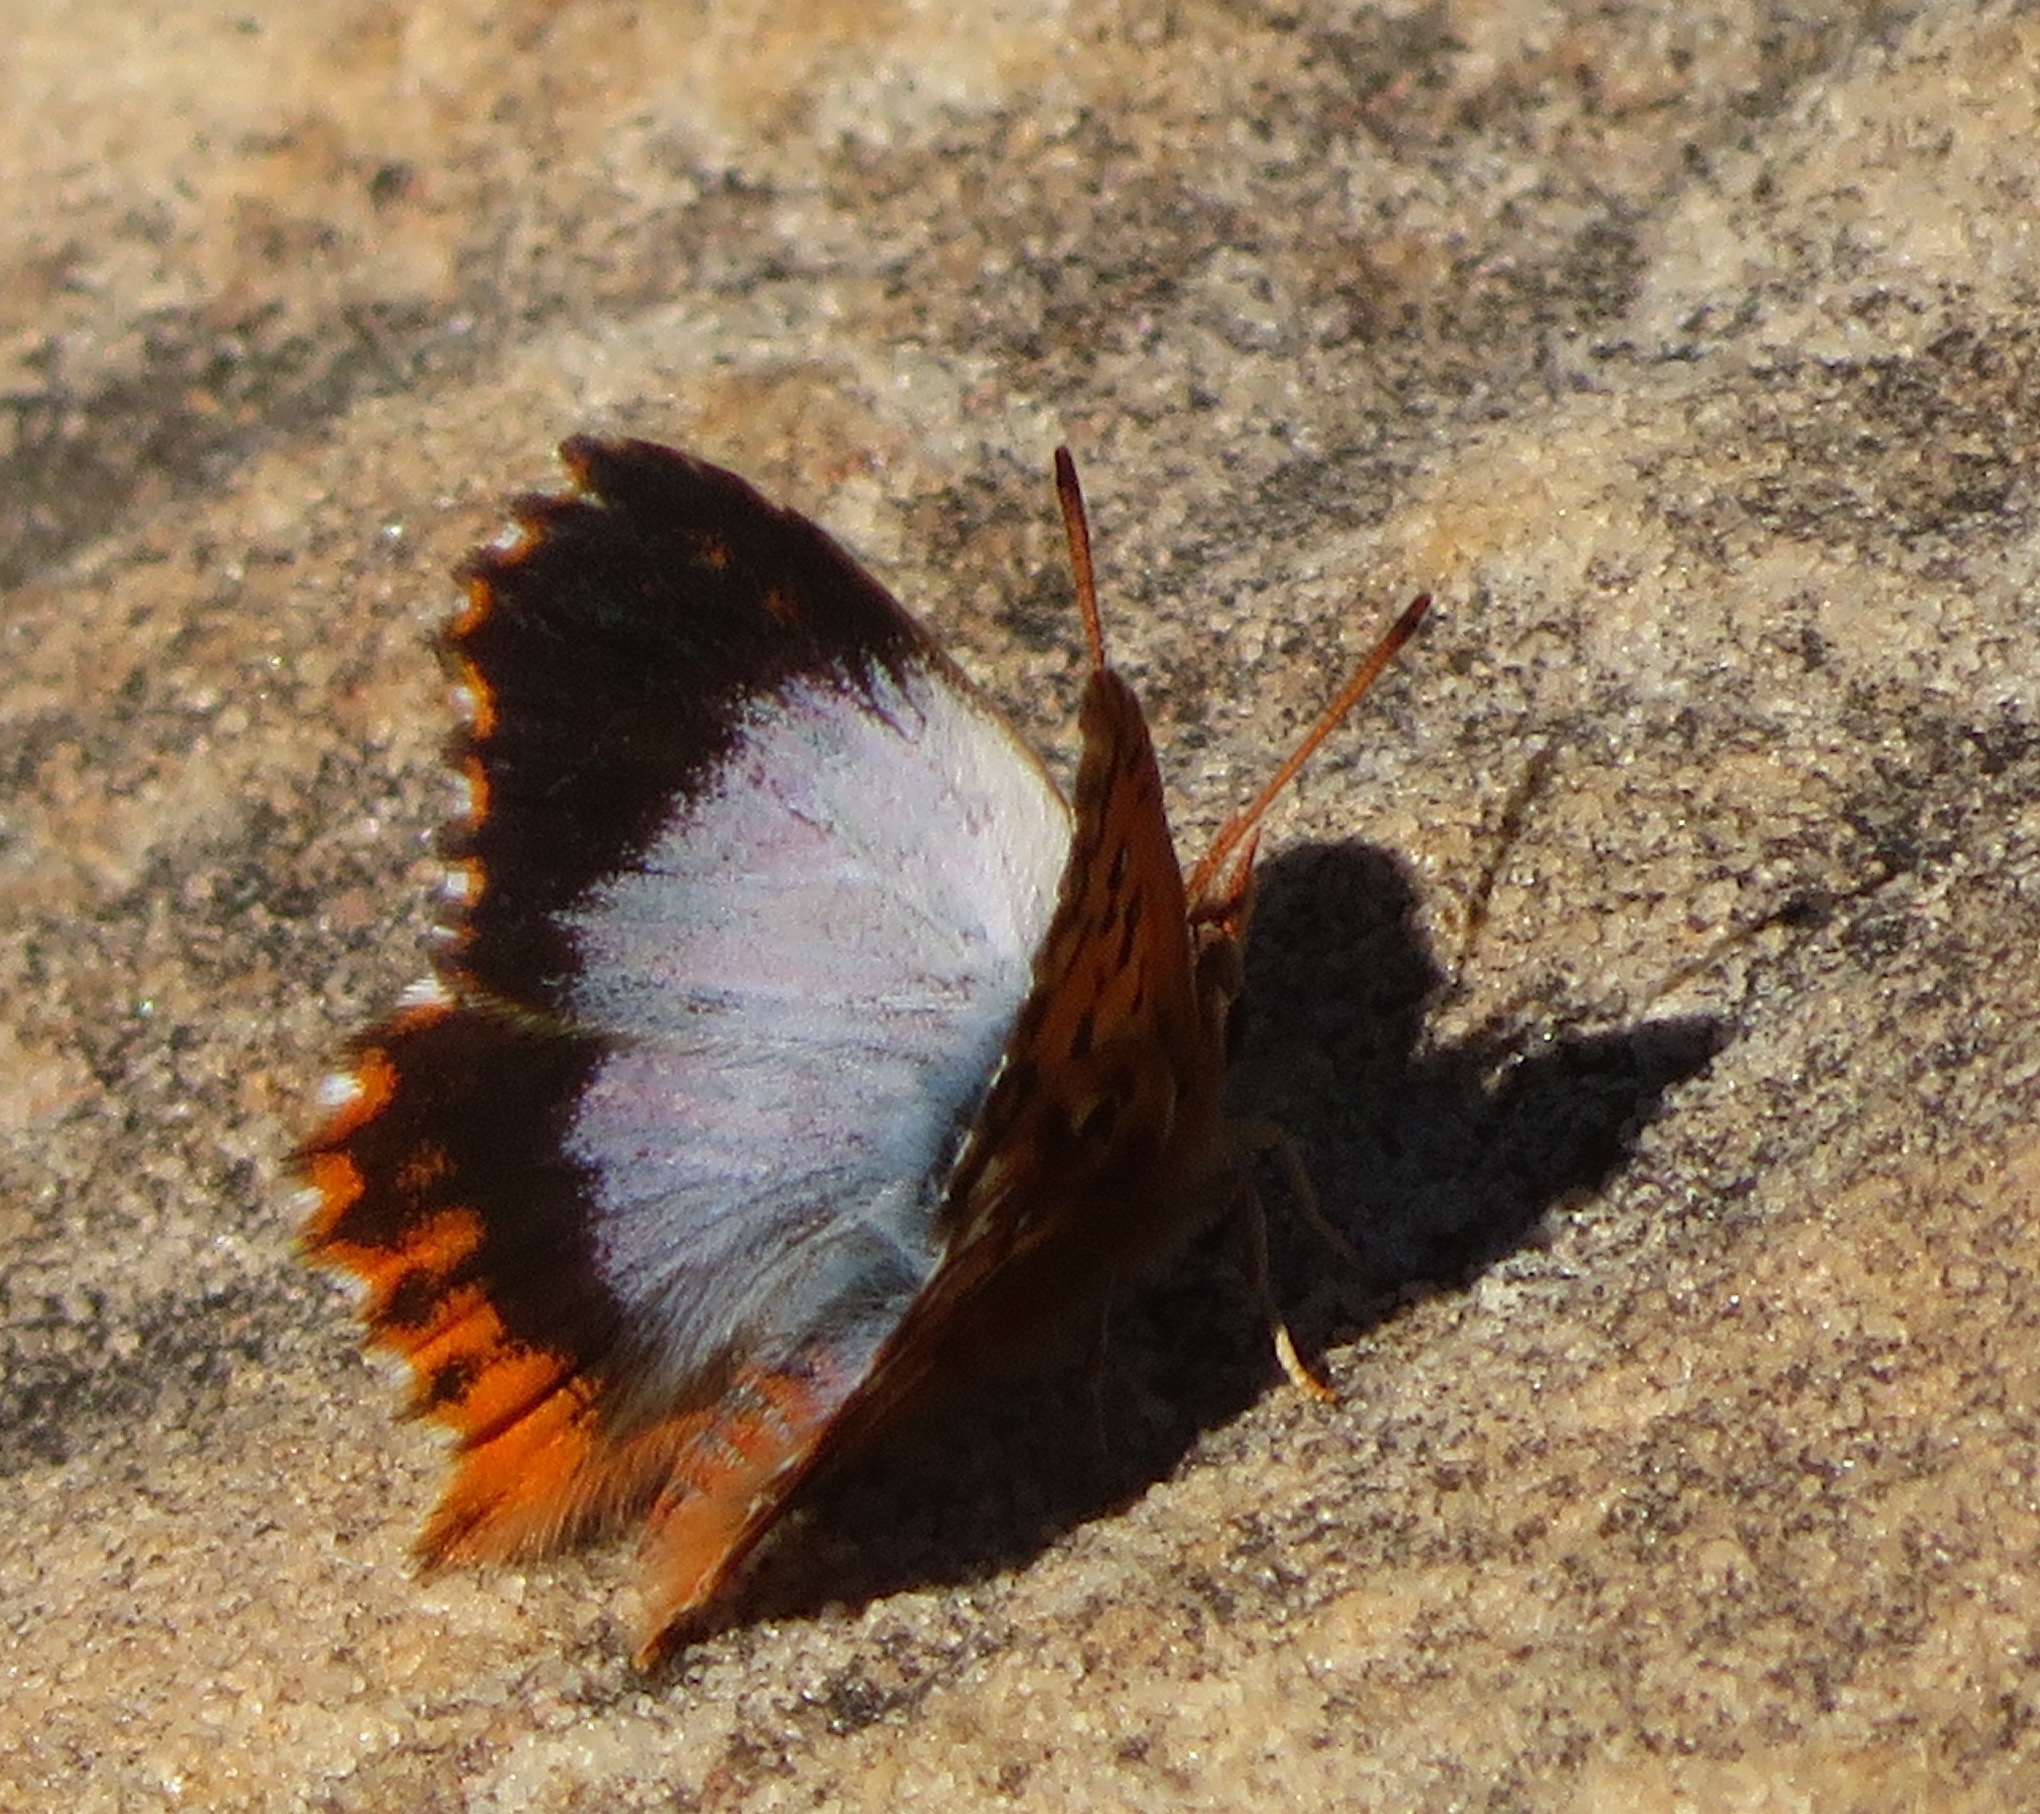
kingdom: Animalia
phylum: Arthropoda
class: Insecta
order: Lepidoptera
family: Lycaenidae
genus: Chrysoritis
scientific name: Chrysoritis
